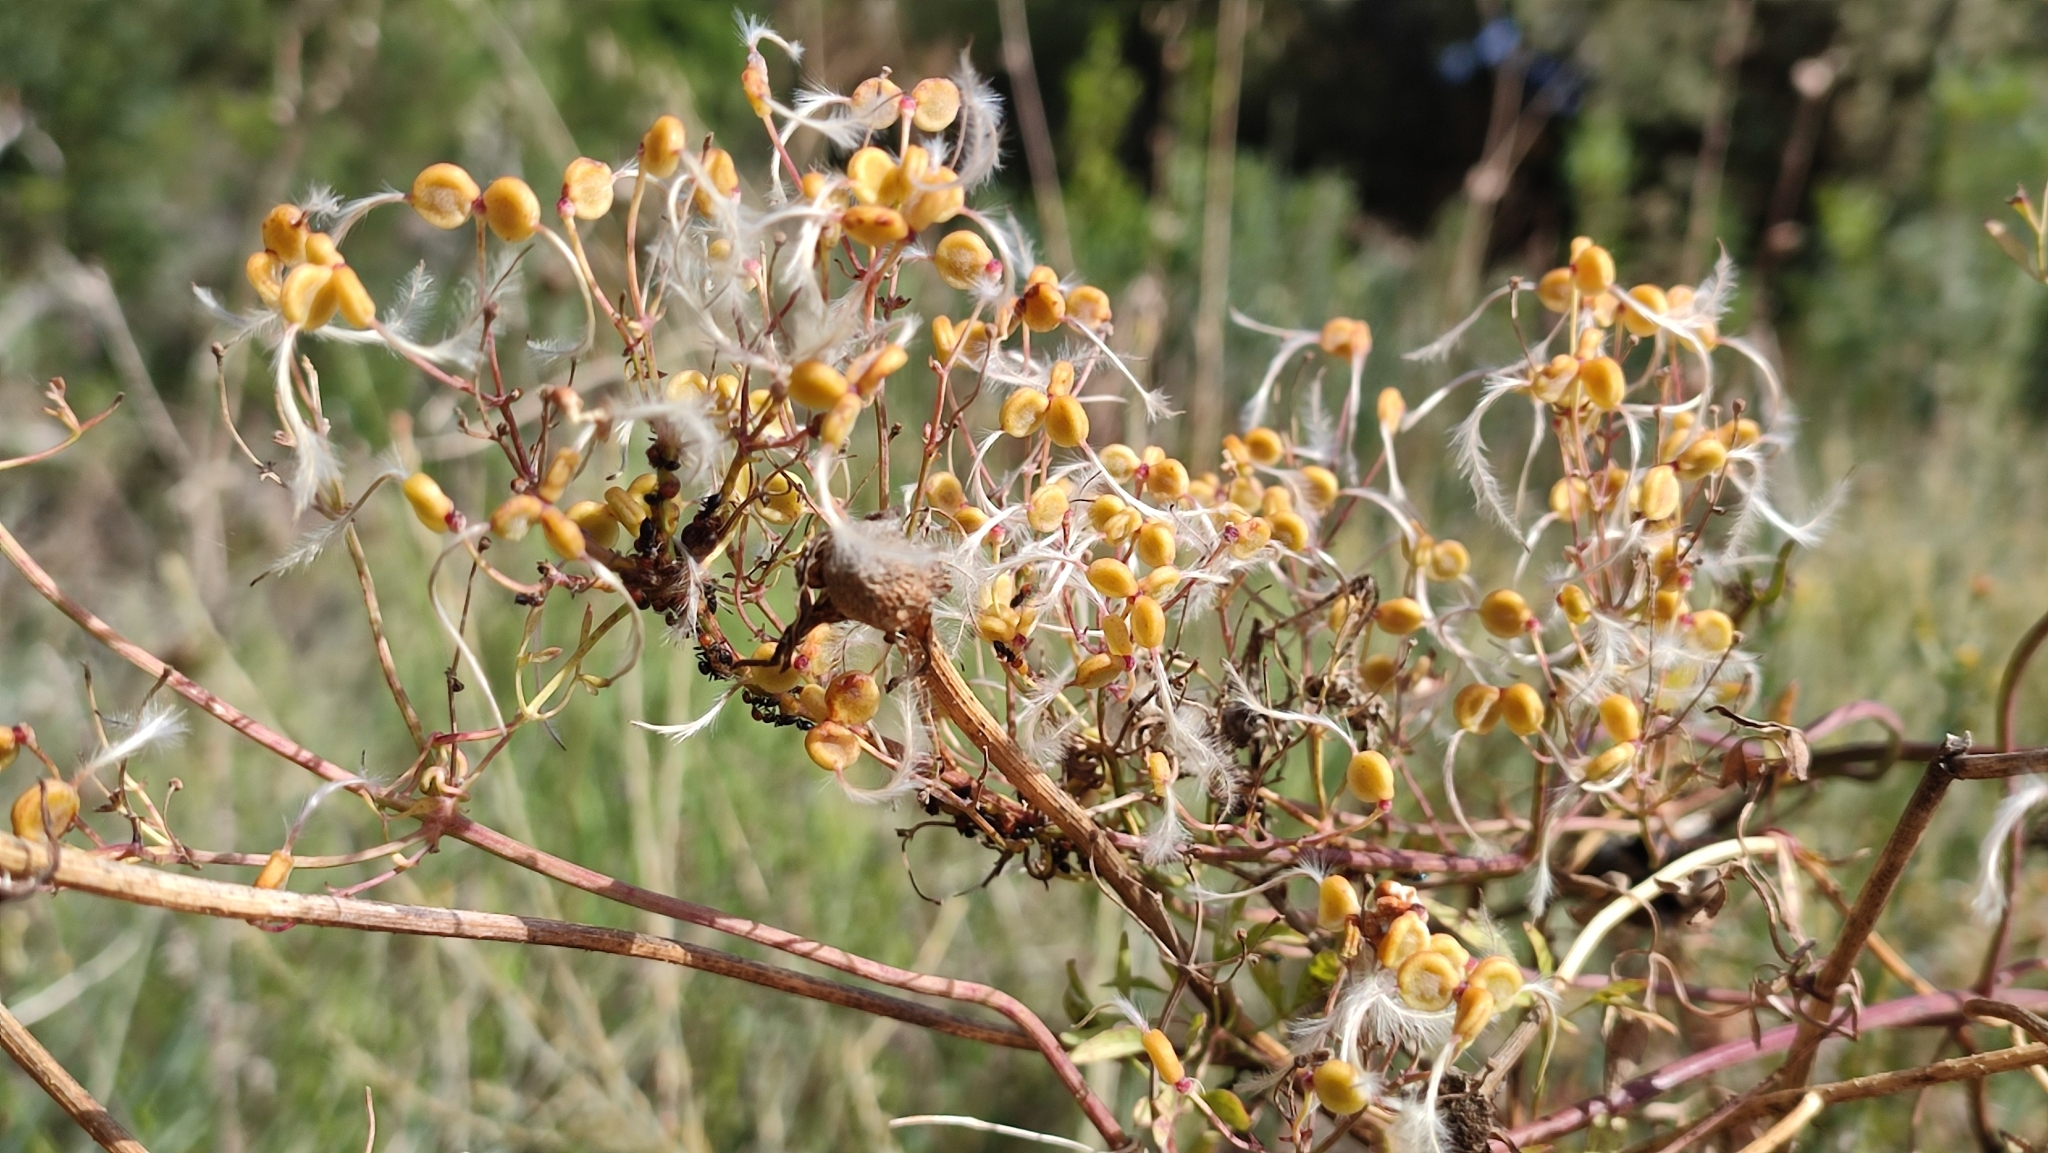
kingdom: Plantae
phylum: Tracheophyta
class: Magnoliopsida
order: Ranunculales
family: Ranunculaceae
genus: Clematis
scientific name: Clematis flammula
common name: Virgin's-bower
